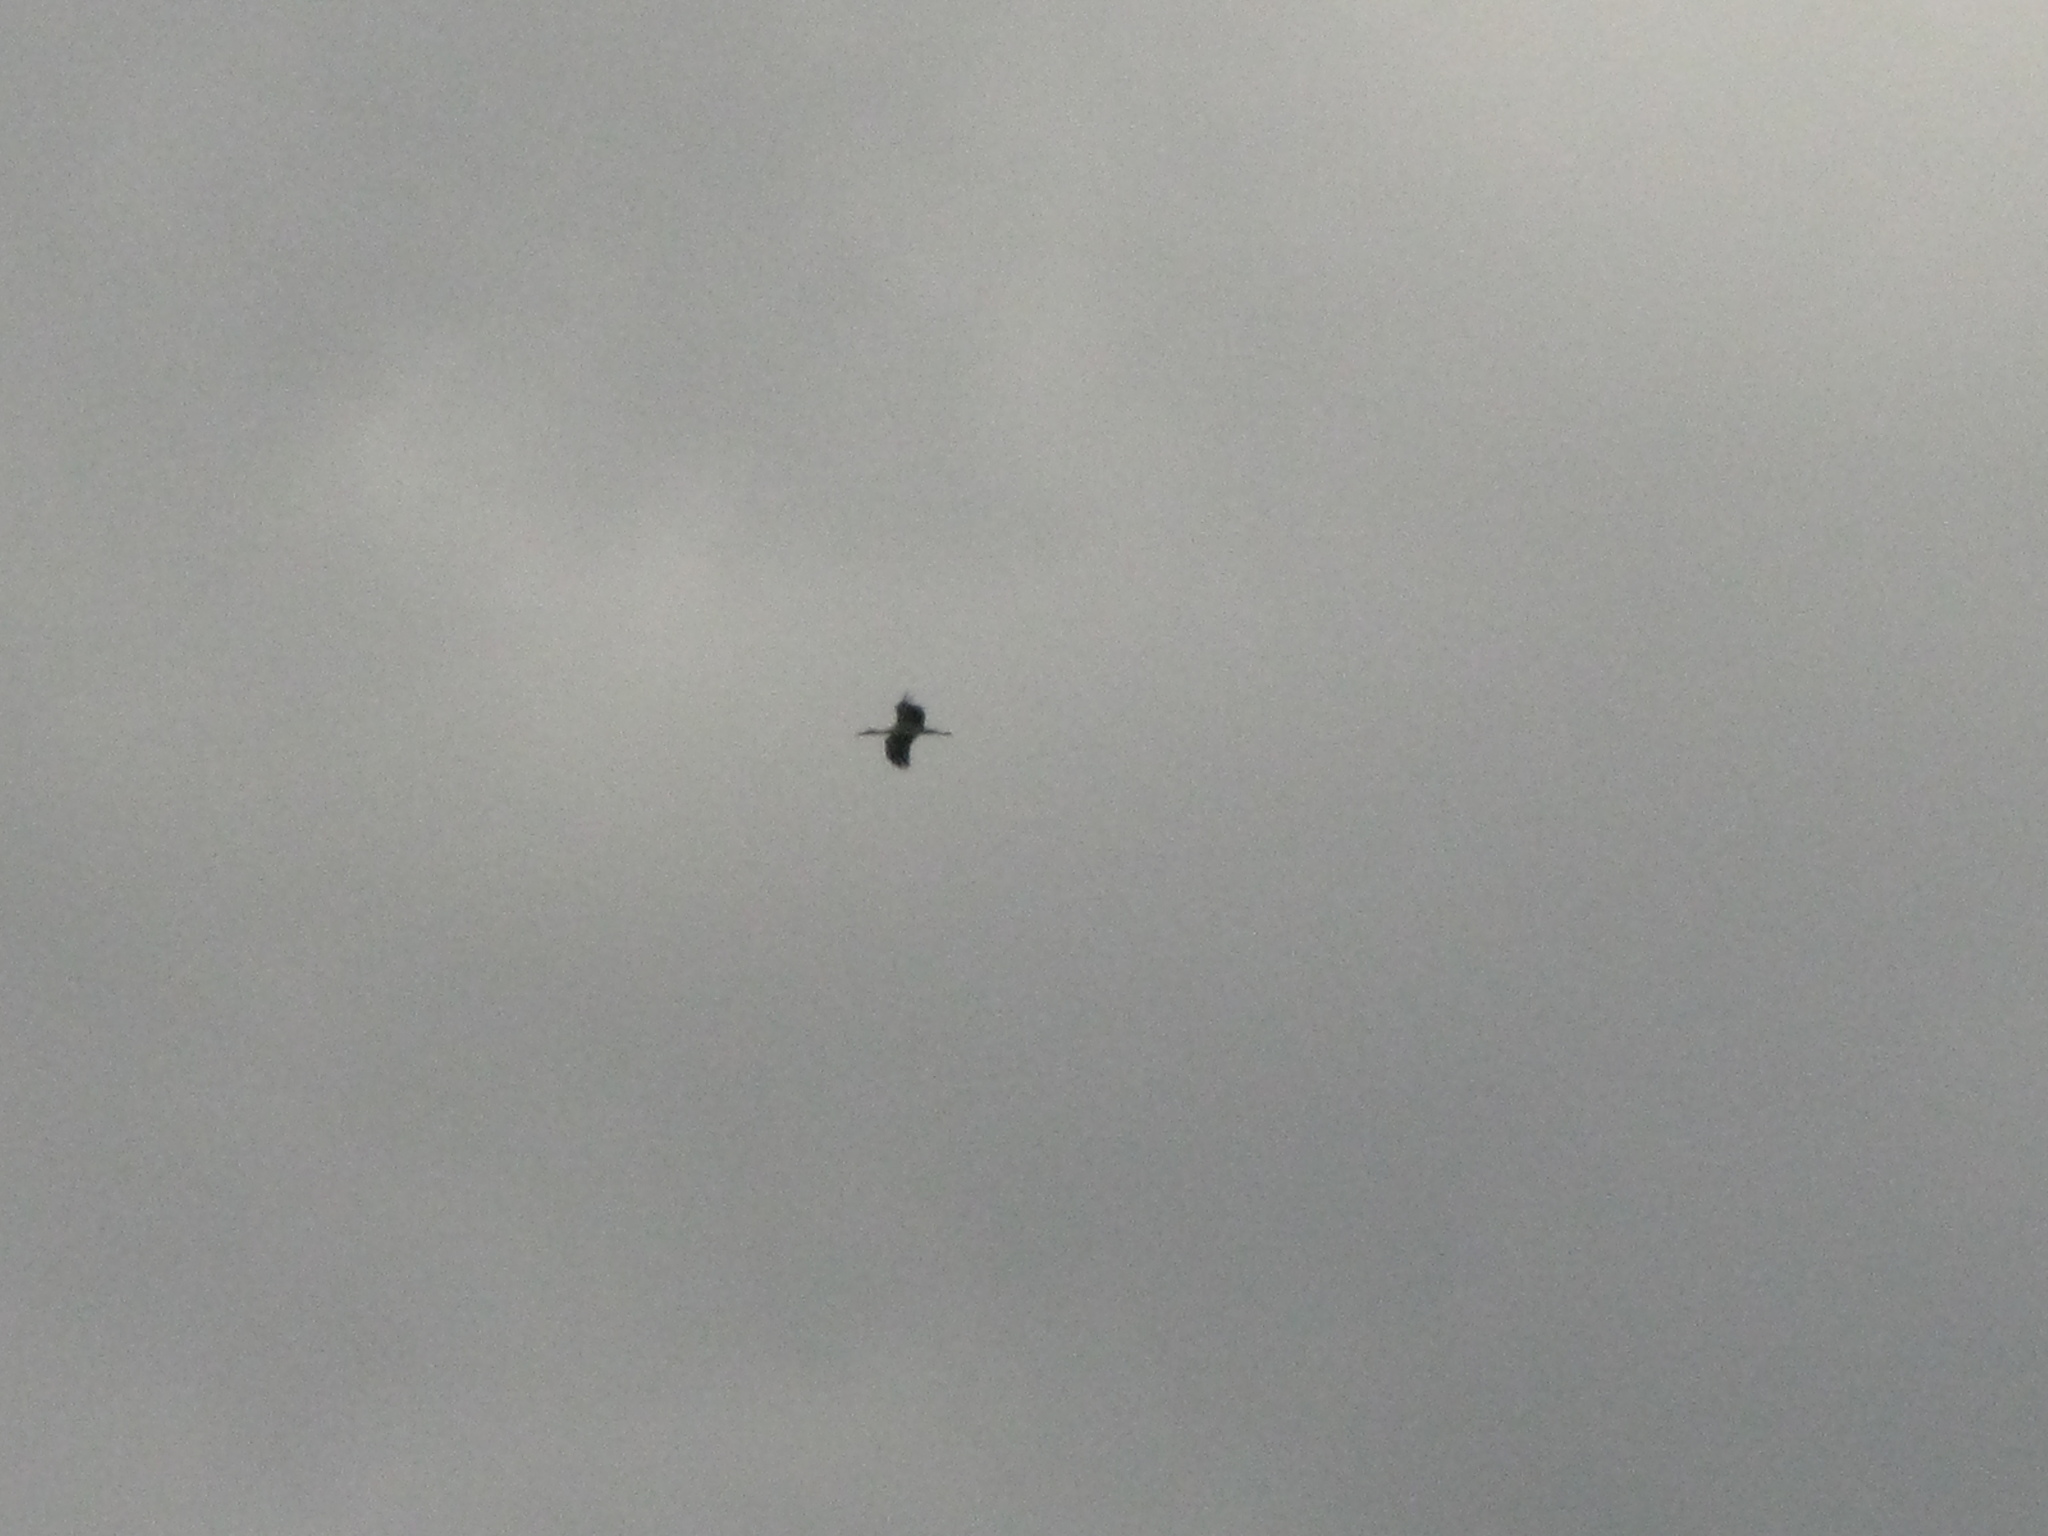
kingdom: Animalia
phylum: Chordata
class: Aves
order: Ciconiiformes
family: Ciconiidae
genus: Ciconia
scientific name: Ciconia ciconia
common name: White stork
